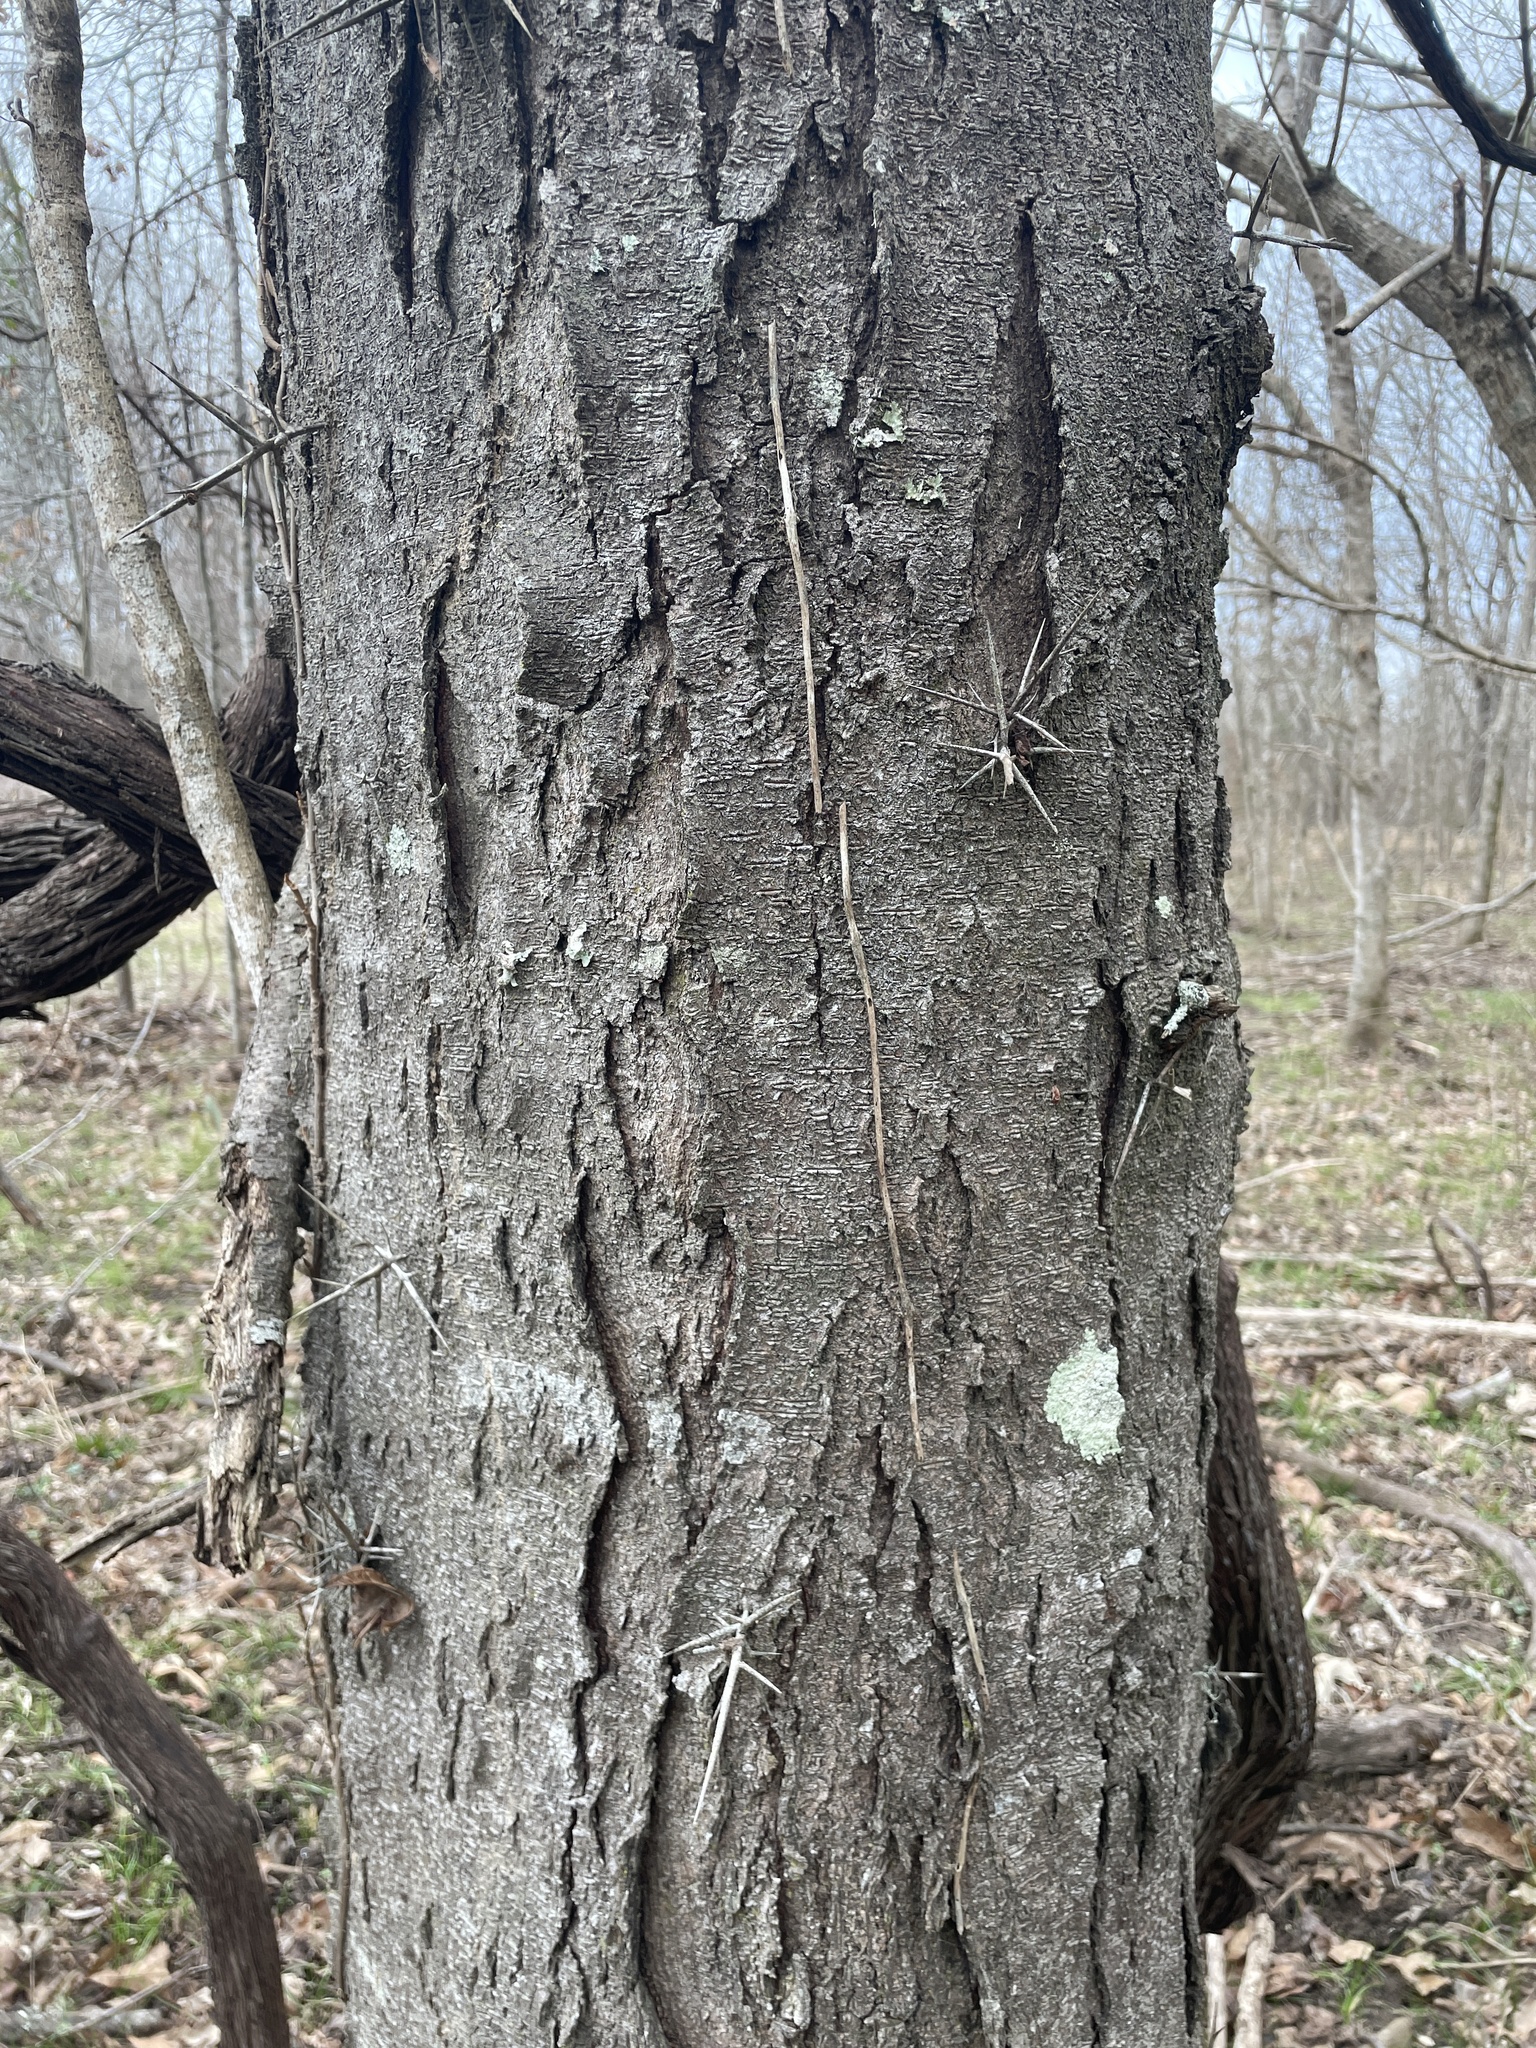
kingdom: Plantae
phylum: Tracheophyta
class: Magnoliopsida
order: Fabales
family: Fabaceae
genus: Gleditsia
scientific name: Gleditsia triacanthos
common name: Common honeylocust
